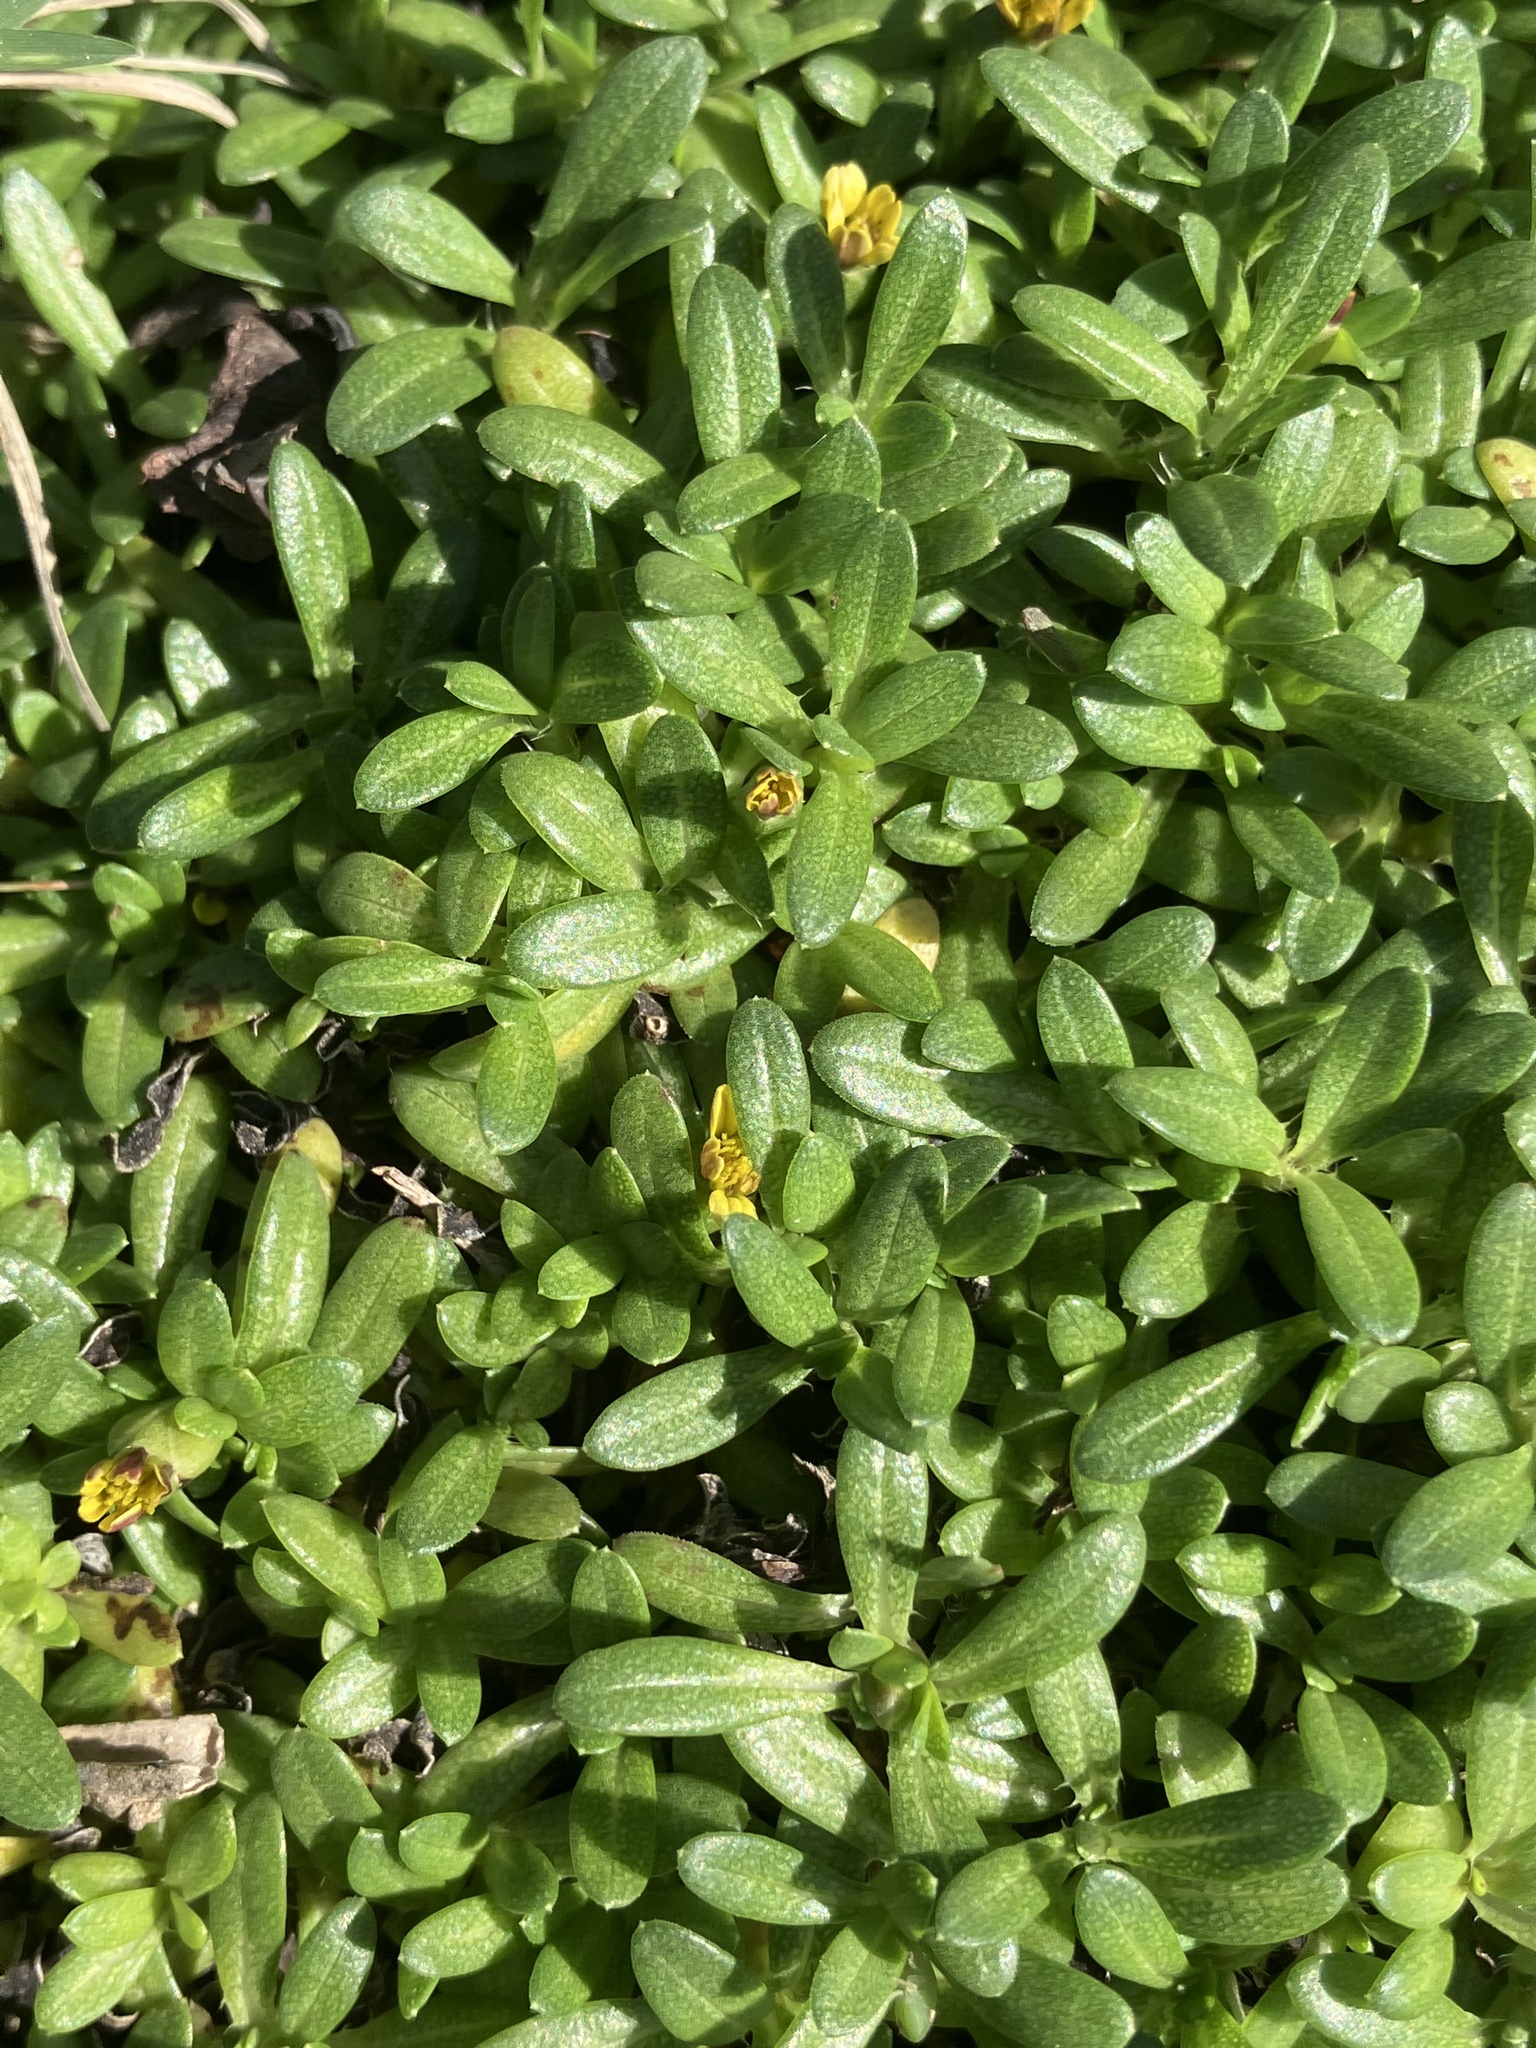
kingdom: Plantae
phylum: Tracheophyta
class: Magnoliopsida
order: Asterales
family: Asteraceae
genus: Pectis
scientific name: Pectis humifusa
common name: Yerba de san juan
